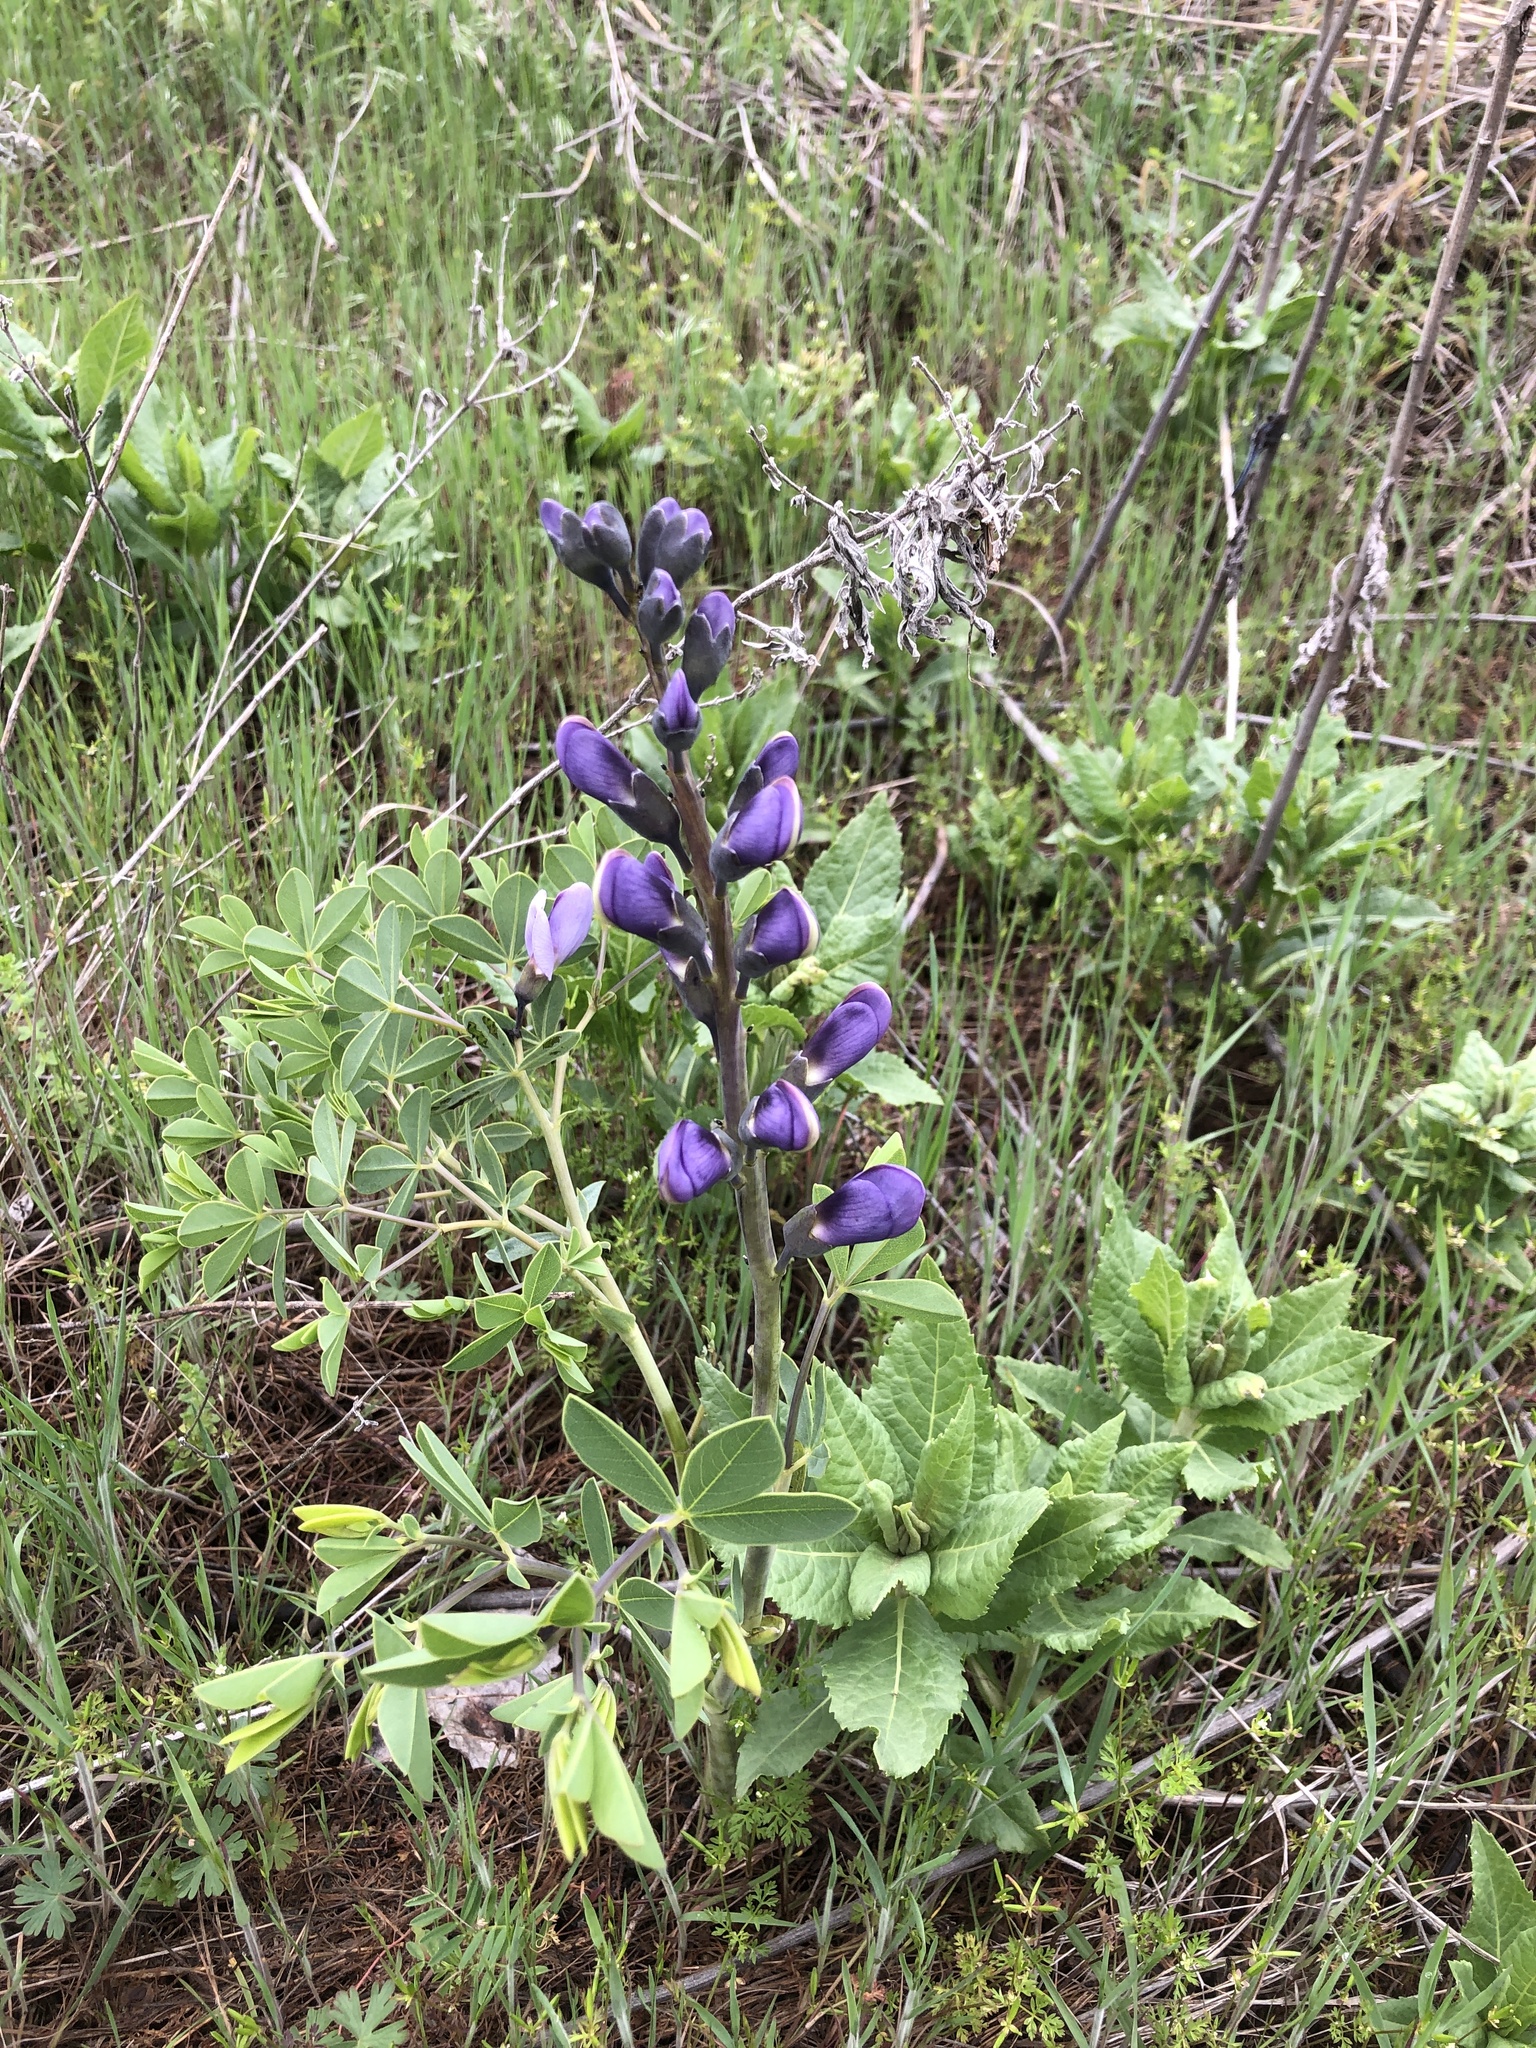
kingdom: Plantae
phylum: Tracheophyta
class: Magnoliopsida
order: Fabales
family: Fabaceae
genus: Baptisia
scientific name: Baptisia australis
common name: Blue false indigo
